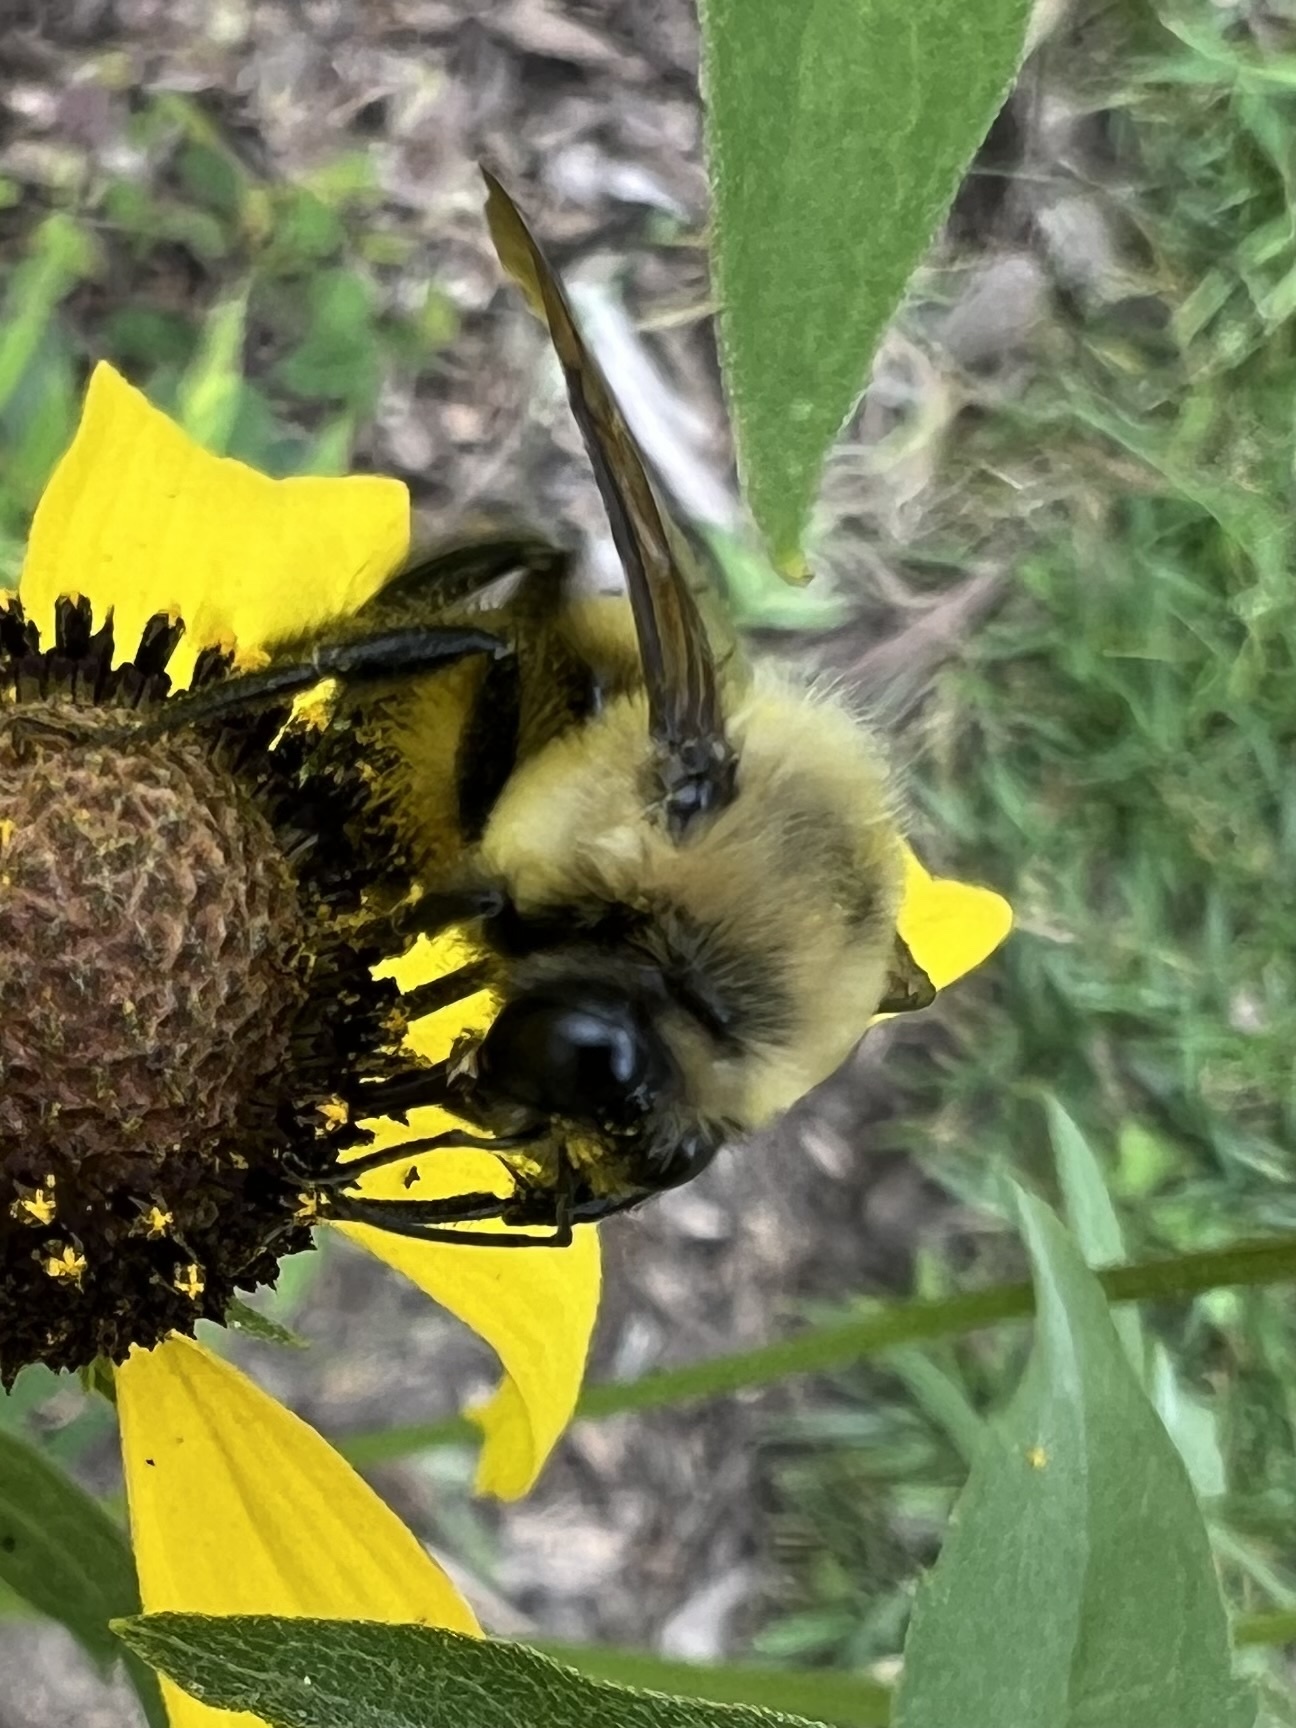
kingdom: Animalia
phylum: Arthropoda
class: Insecta
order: Hymenoptera
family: Apidae
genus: Bombus
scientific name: Bombus griseocollis
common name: Brown-belted bumble bee
